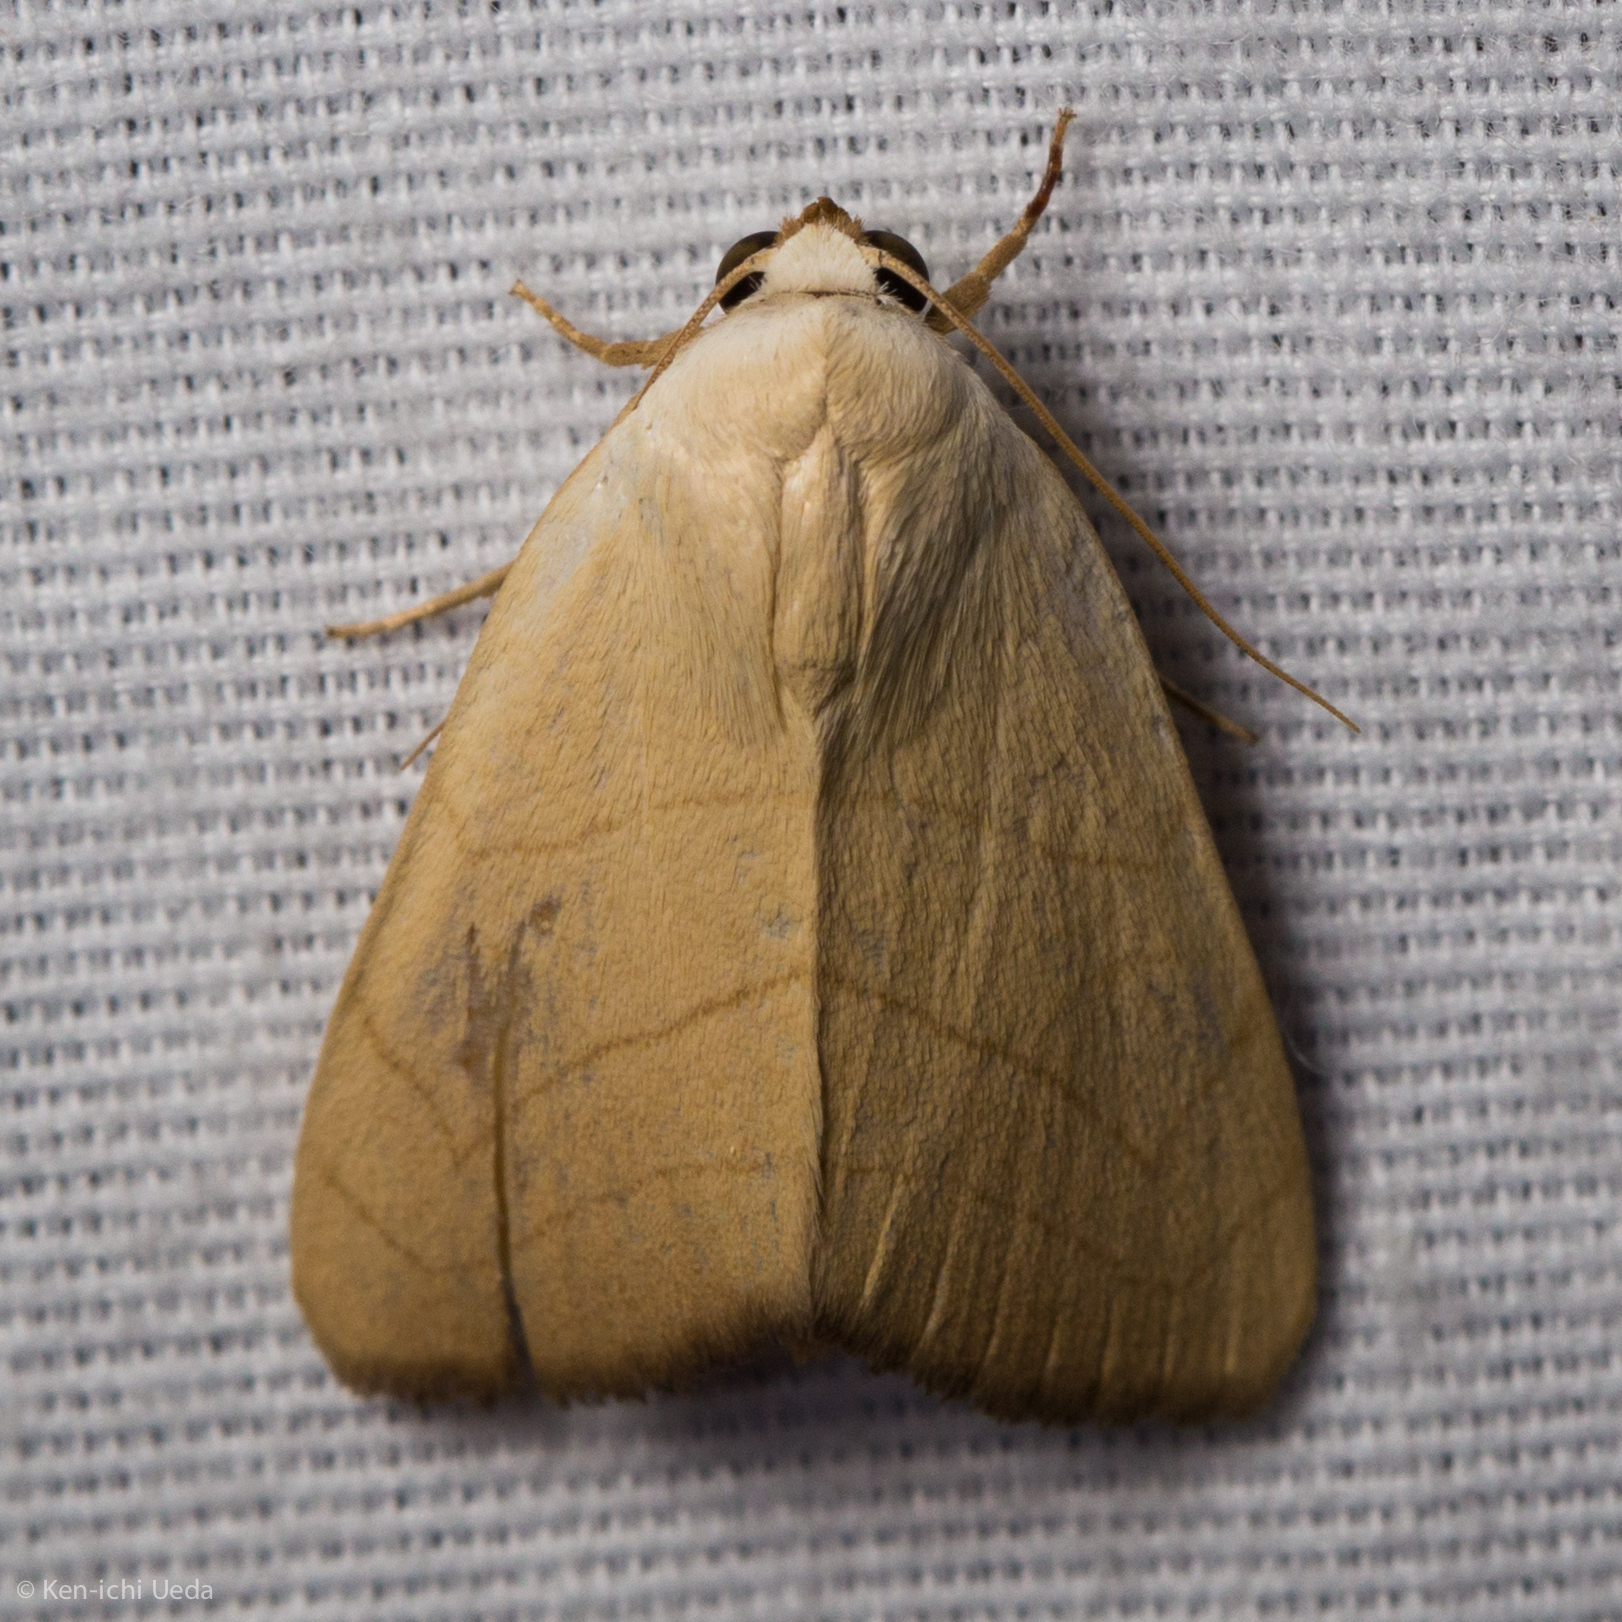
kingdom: Animalia
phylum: Arthropoda
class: Insecta
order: Lepidoptera
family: Noctuidae
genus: Bagisara
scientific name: Bagisara buxea
